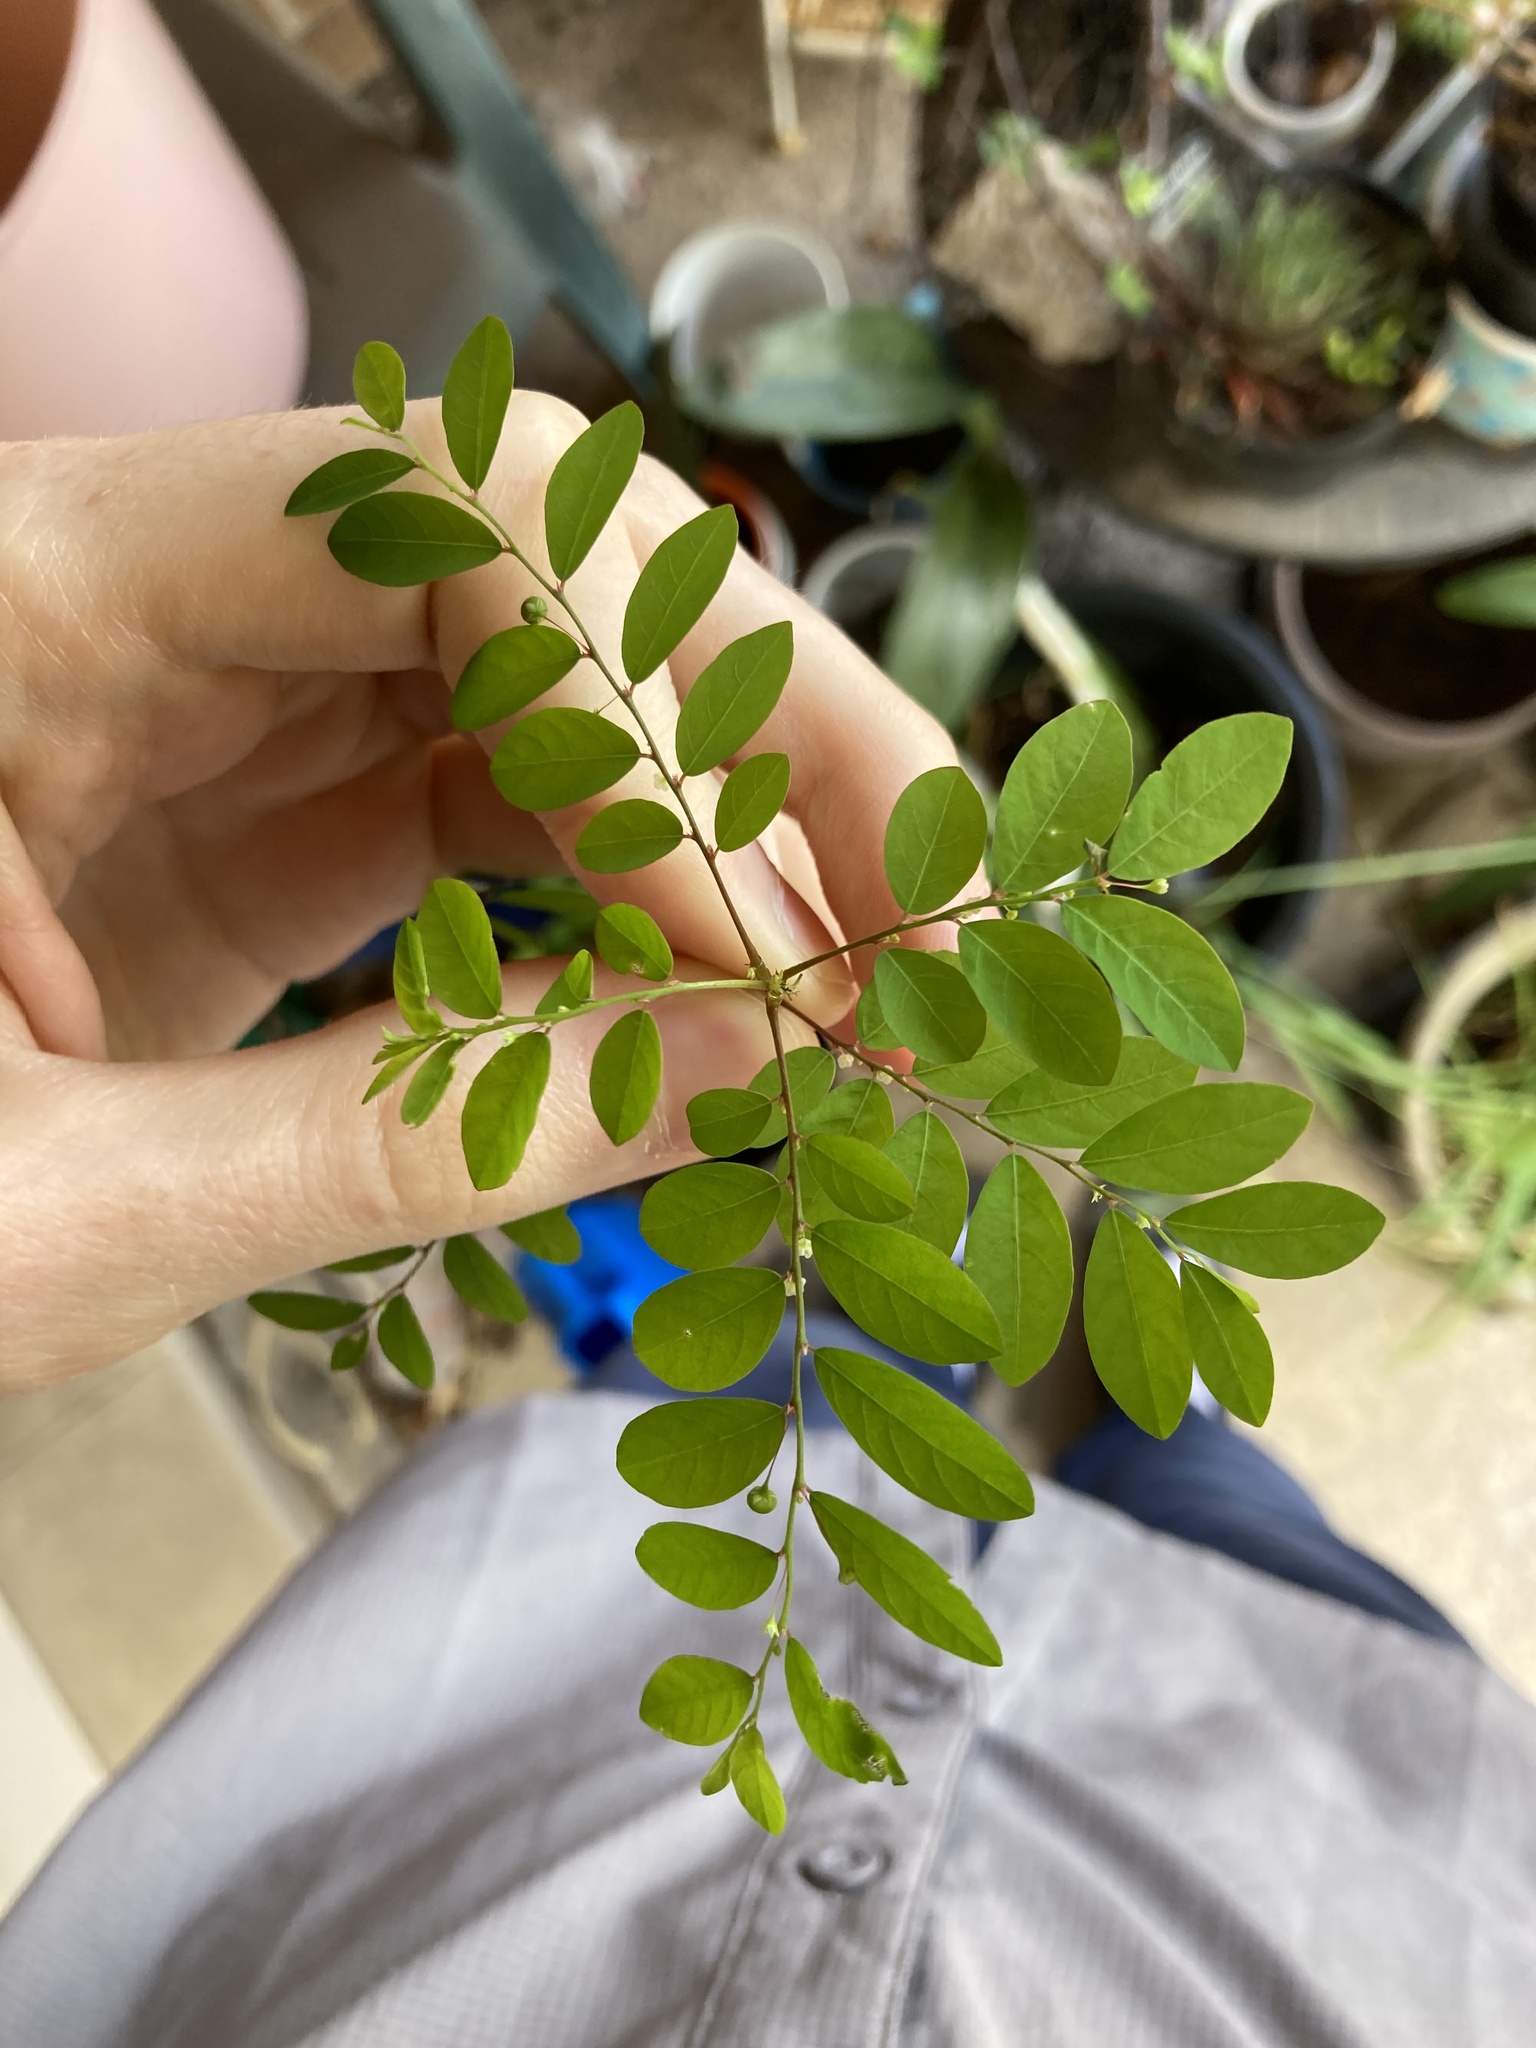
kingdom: Plantae
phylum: Tracheophyta
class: Magnoliopsida
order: Malpighiales
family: Phyllanthaceae
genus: Phyllanthus
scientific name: Phyllanthus tenellus
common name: Mascarene island leaf-flower
